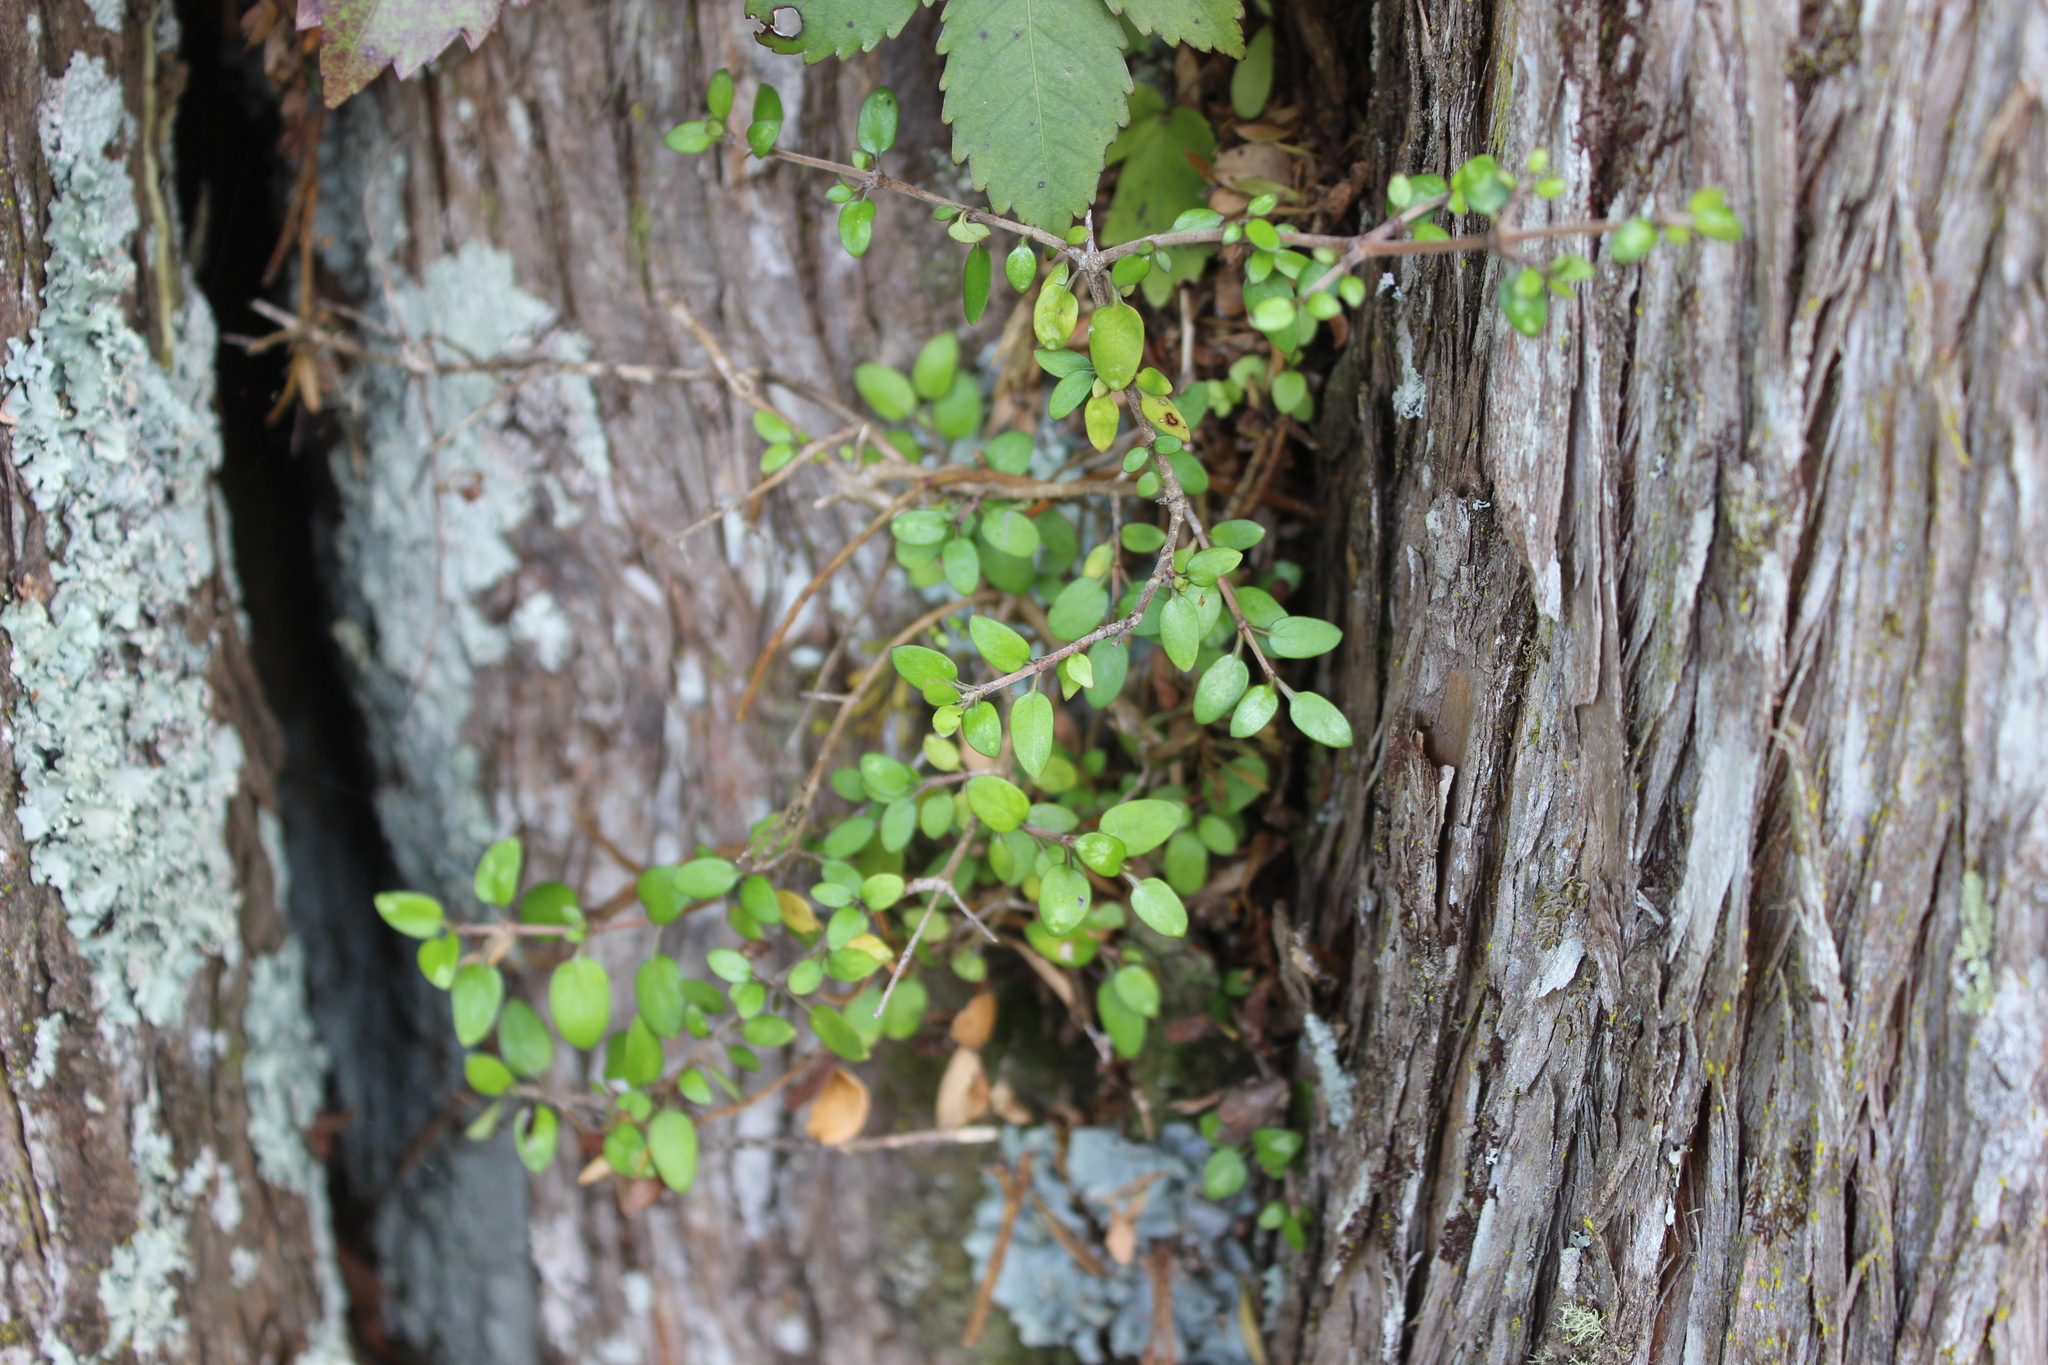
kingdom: Plantae
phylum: Tracheophyta
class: Magnoliopsida
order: Gentianales
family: Rubiaceae
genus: Coprosma
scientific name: Coprosma rhamnoides
